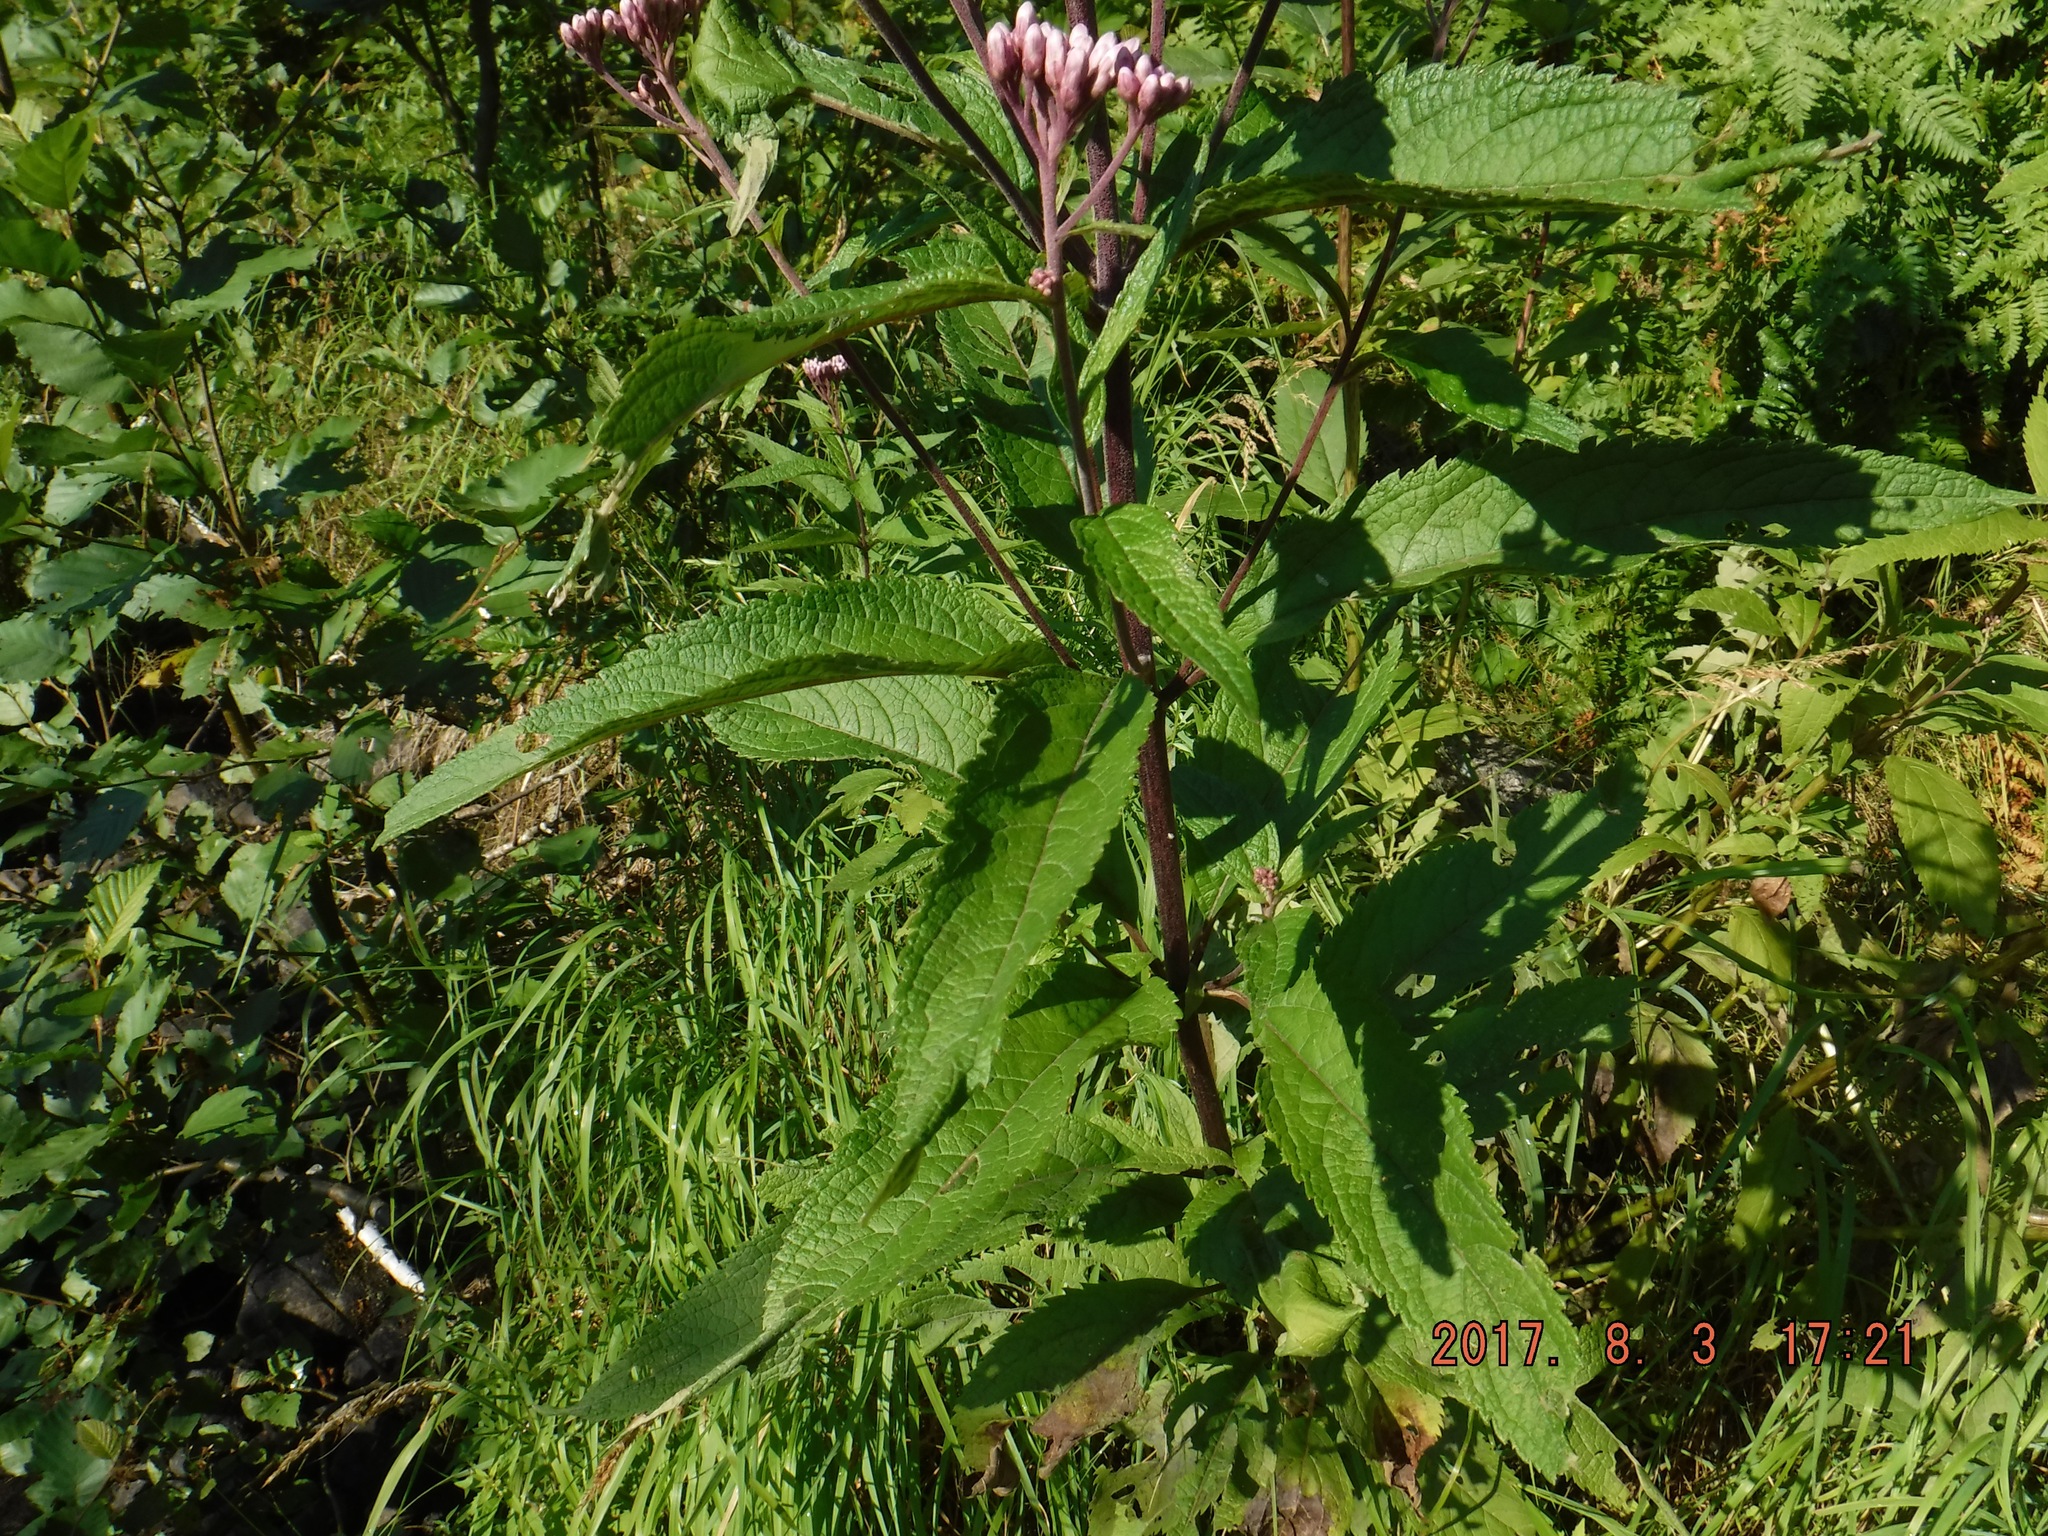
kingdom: Plantae
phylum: Tracheophyta
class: Magnoliopsida
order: Asterales
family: Asteraceae
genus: Eutrochium
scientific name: Eutrochium maculatum
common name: Spotted joe pye weed
